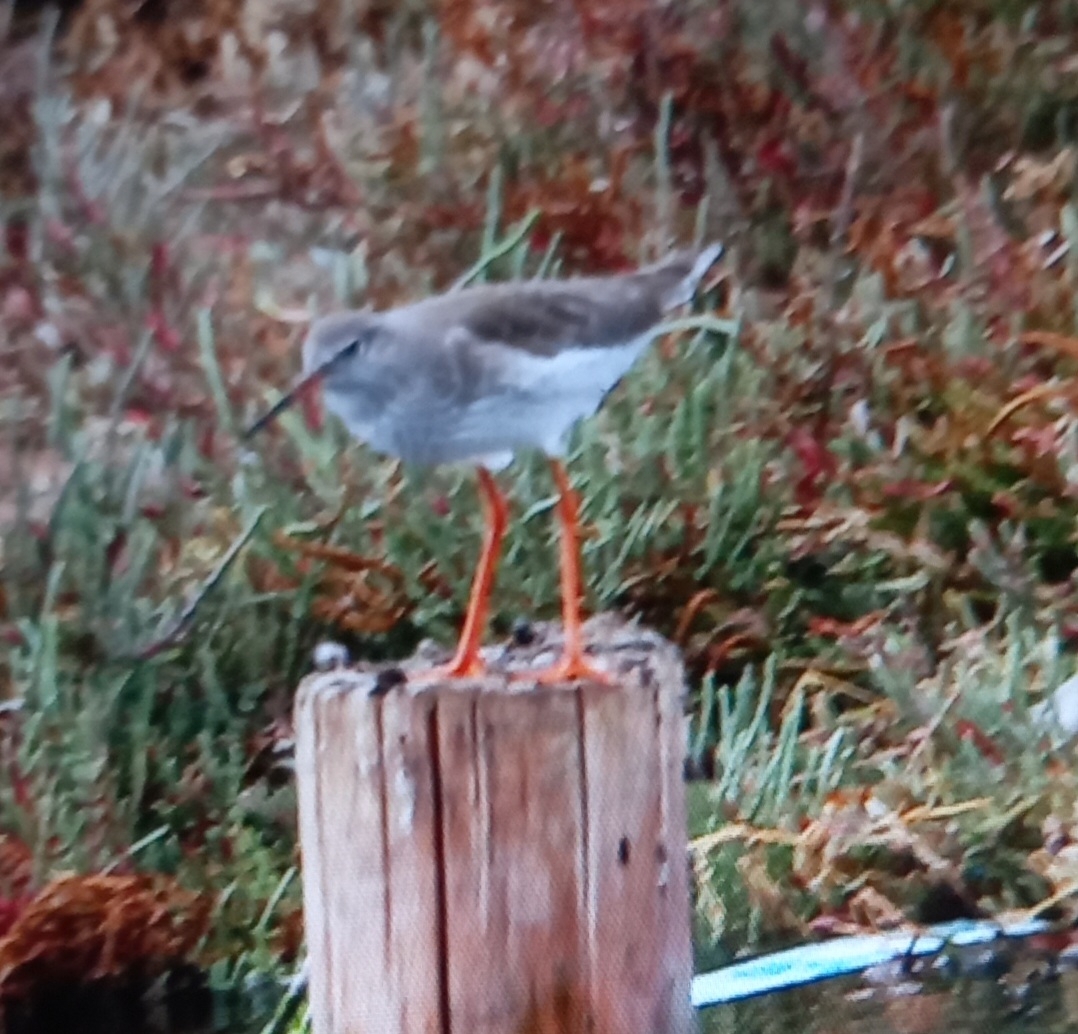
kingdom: Animalia
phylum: Chordata
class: Aves
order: Charadriiformes
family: Scolopacidae
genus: Tringa
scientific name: Tringa totanus
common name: Common redshank
